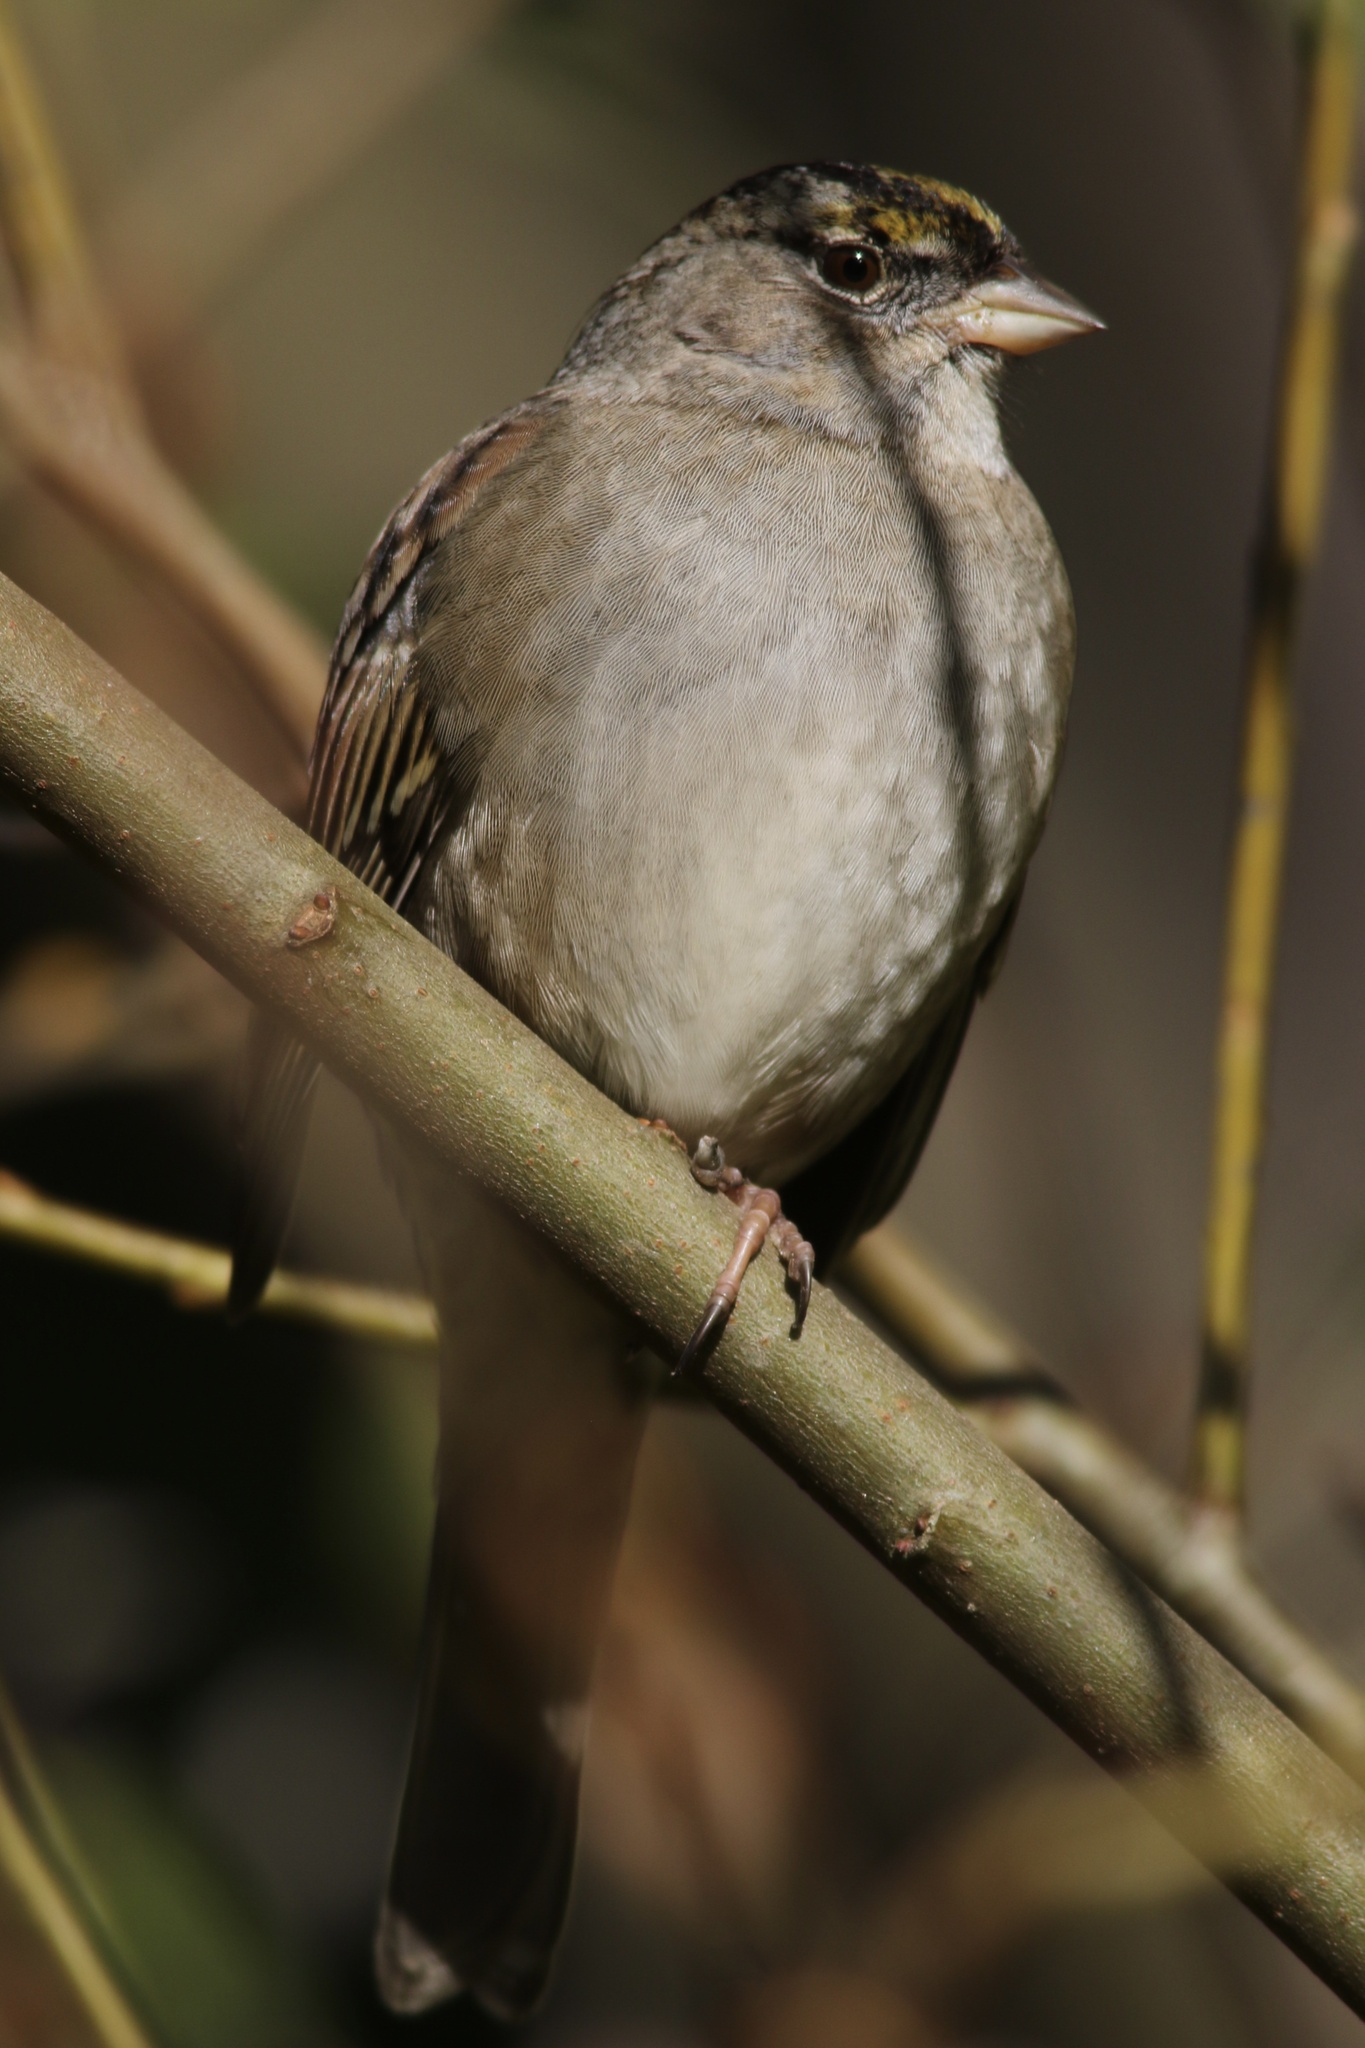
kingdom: Animalia
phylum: Chordata
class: Aves
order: Passeriformes
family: Passerellidae
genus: Zonotrichia
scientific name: Zonotrichia atricapilla
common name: Golden-crowned sparrow
